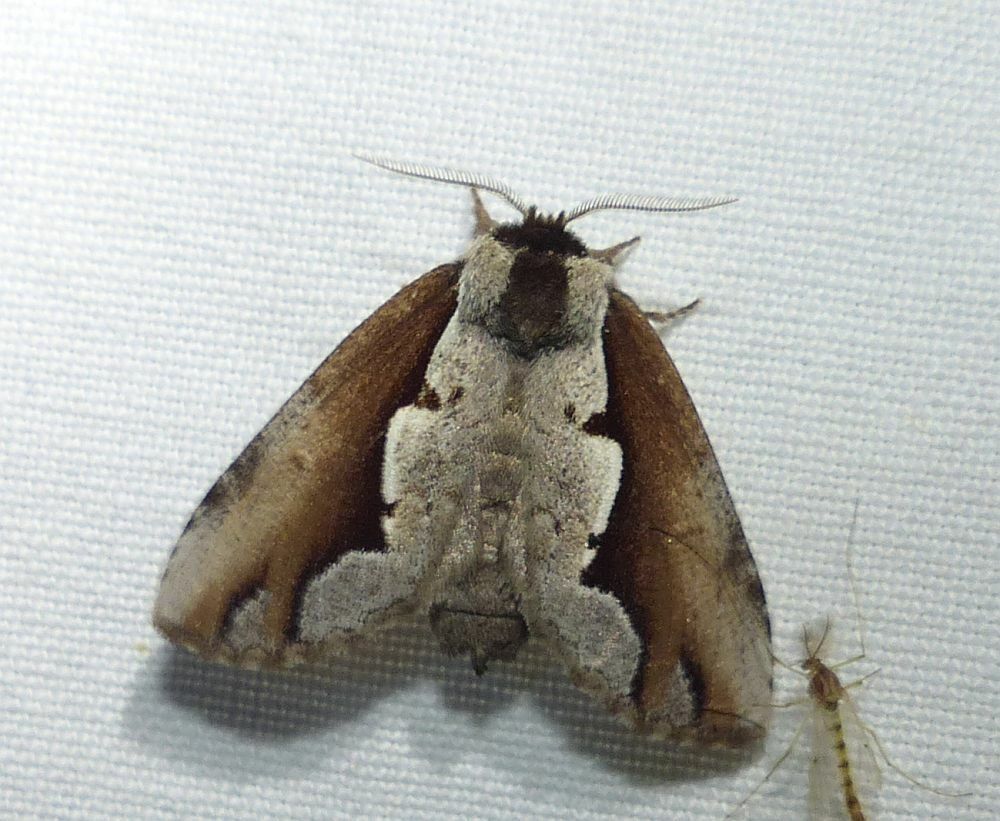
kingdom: Animalia
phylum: Arthropoda
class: Insecta
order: Lepidoptera
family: Notodontidae
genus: Nerice
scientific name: Nerice bidentata
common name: Double-toothed prominent
